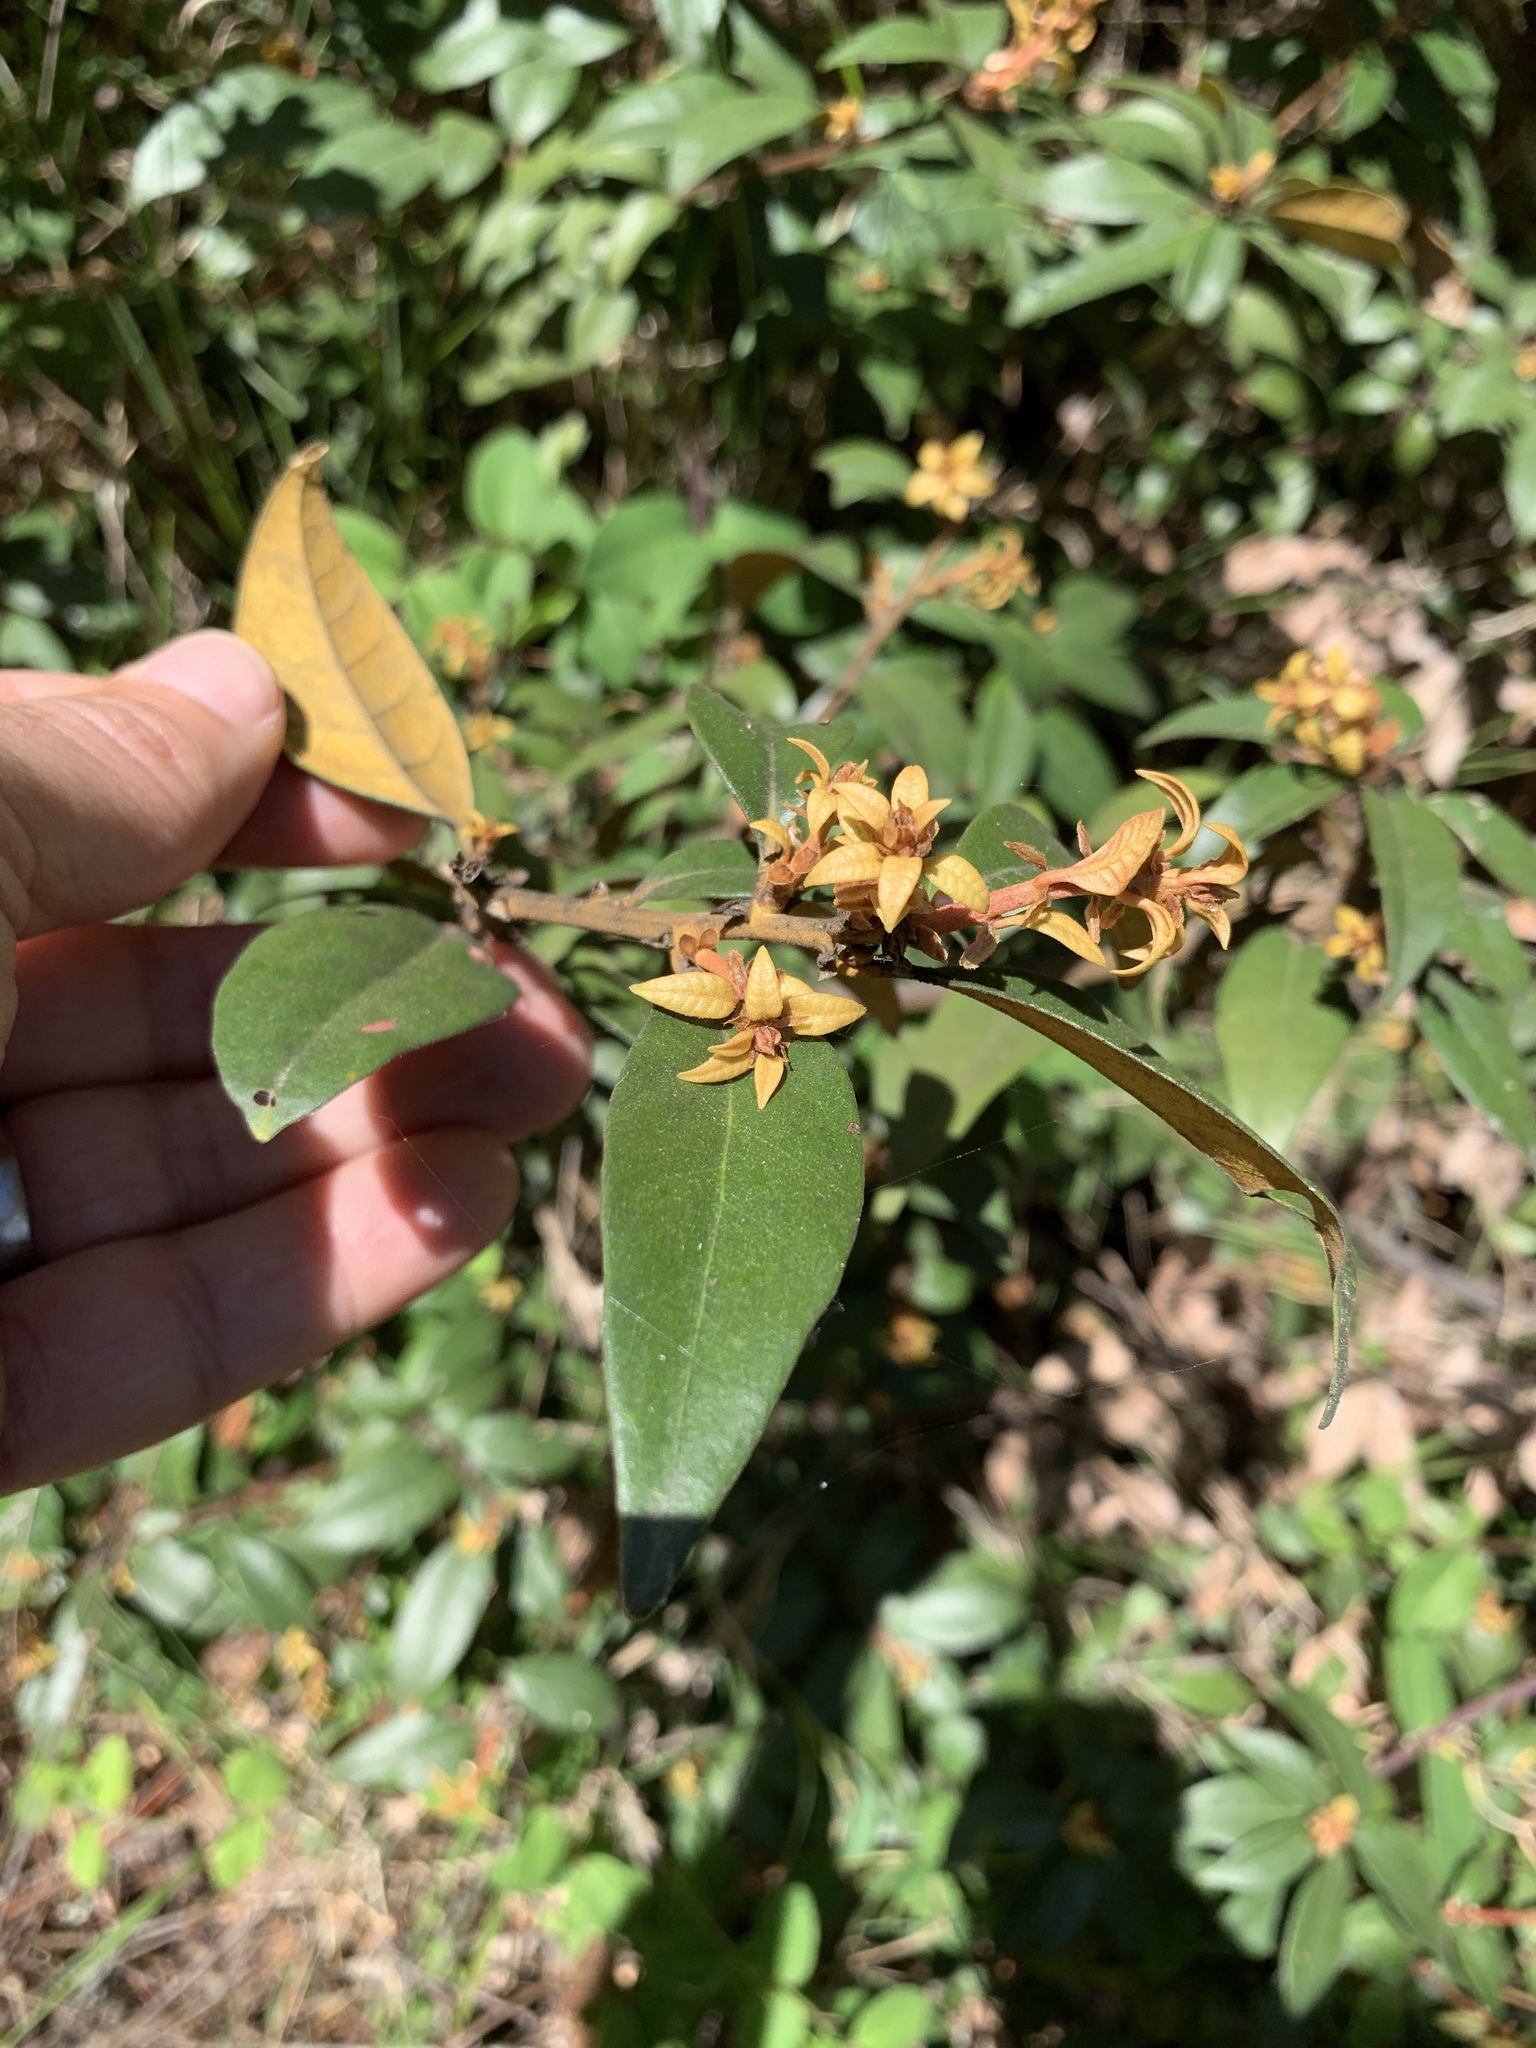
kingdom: Plantae
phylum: Tracheophyta
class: Magnoliopsida
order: Fagales
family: Fagaceae
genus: Chrysolepis
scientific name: Chrysolepis chrysophylla
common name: Giant chinquapin
